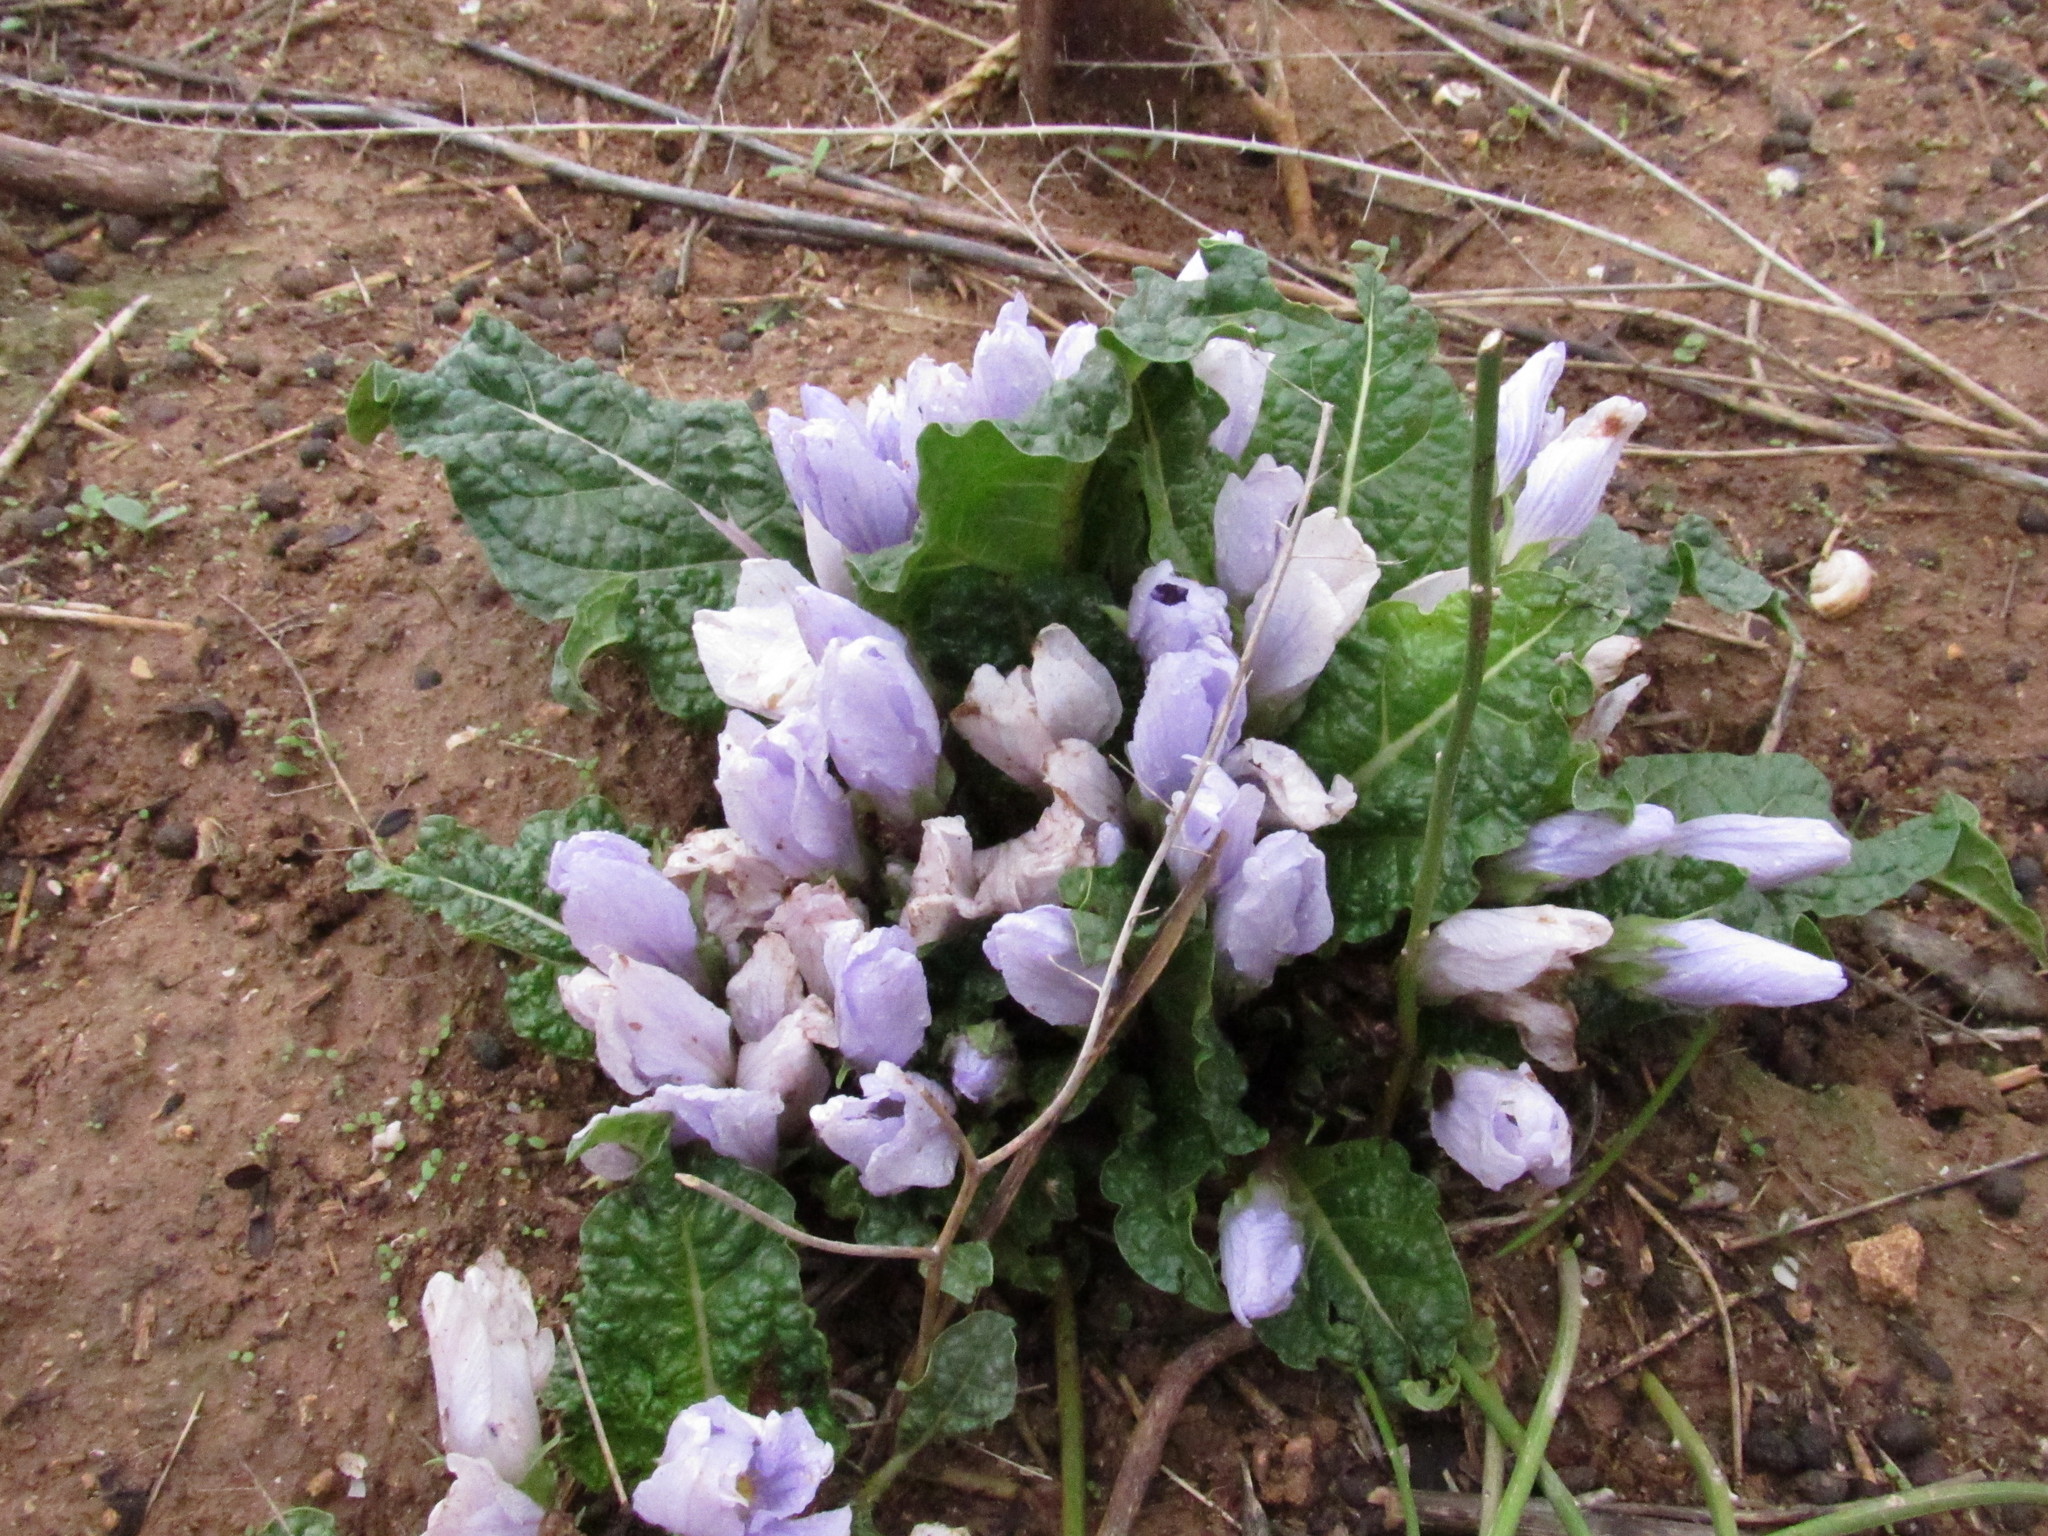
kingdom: Plantae
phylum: Tracheophyta
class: Magnoliopsida
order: Solanales
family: Solanaceae
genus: Mandragora
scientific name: Mandragora officinarum
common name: Mandrake
